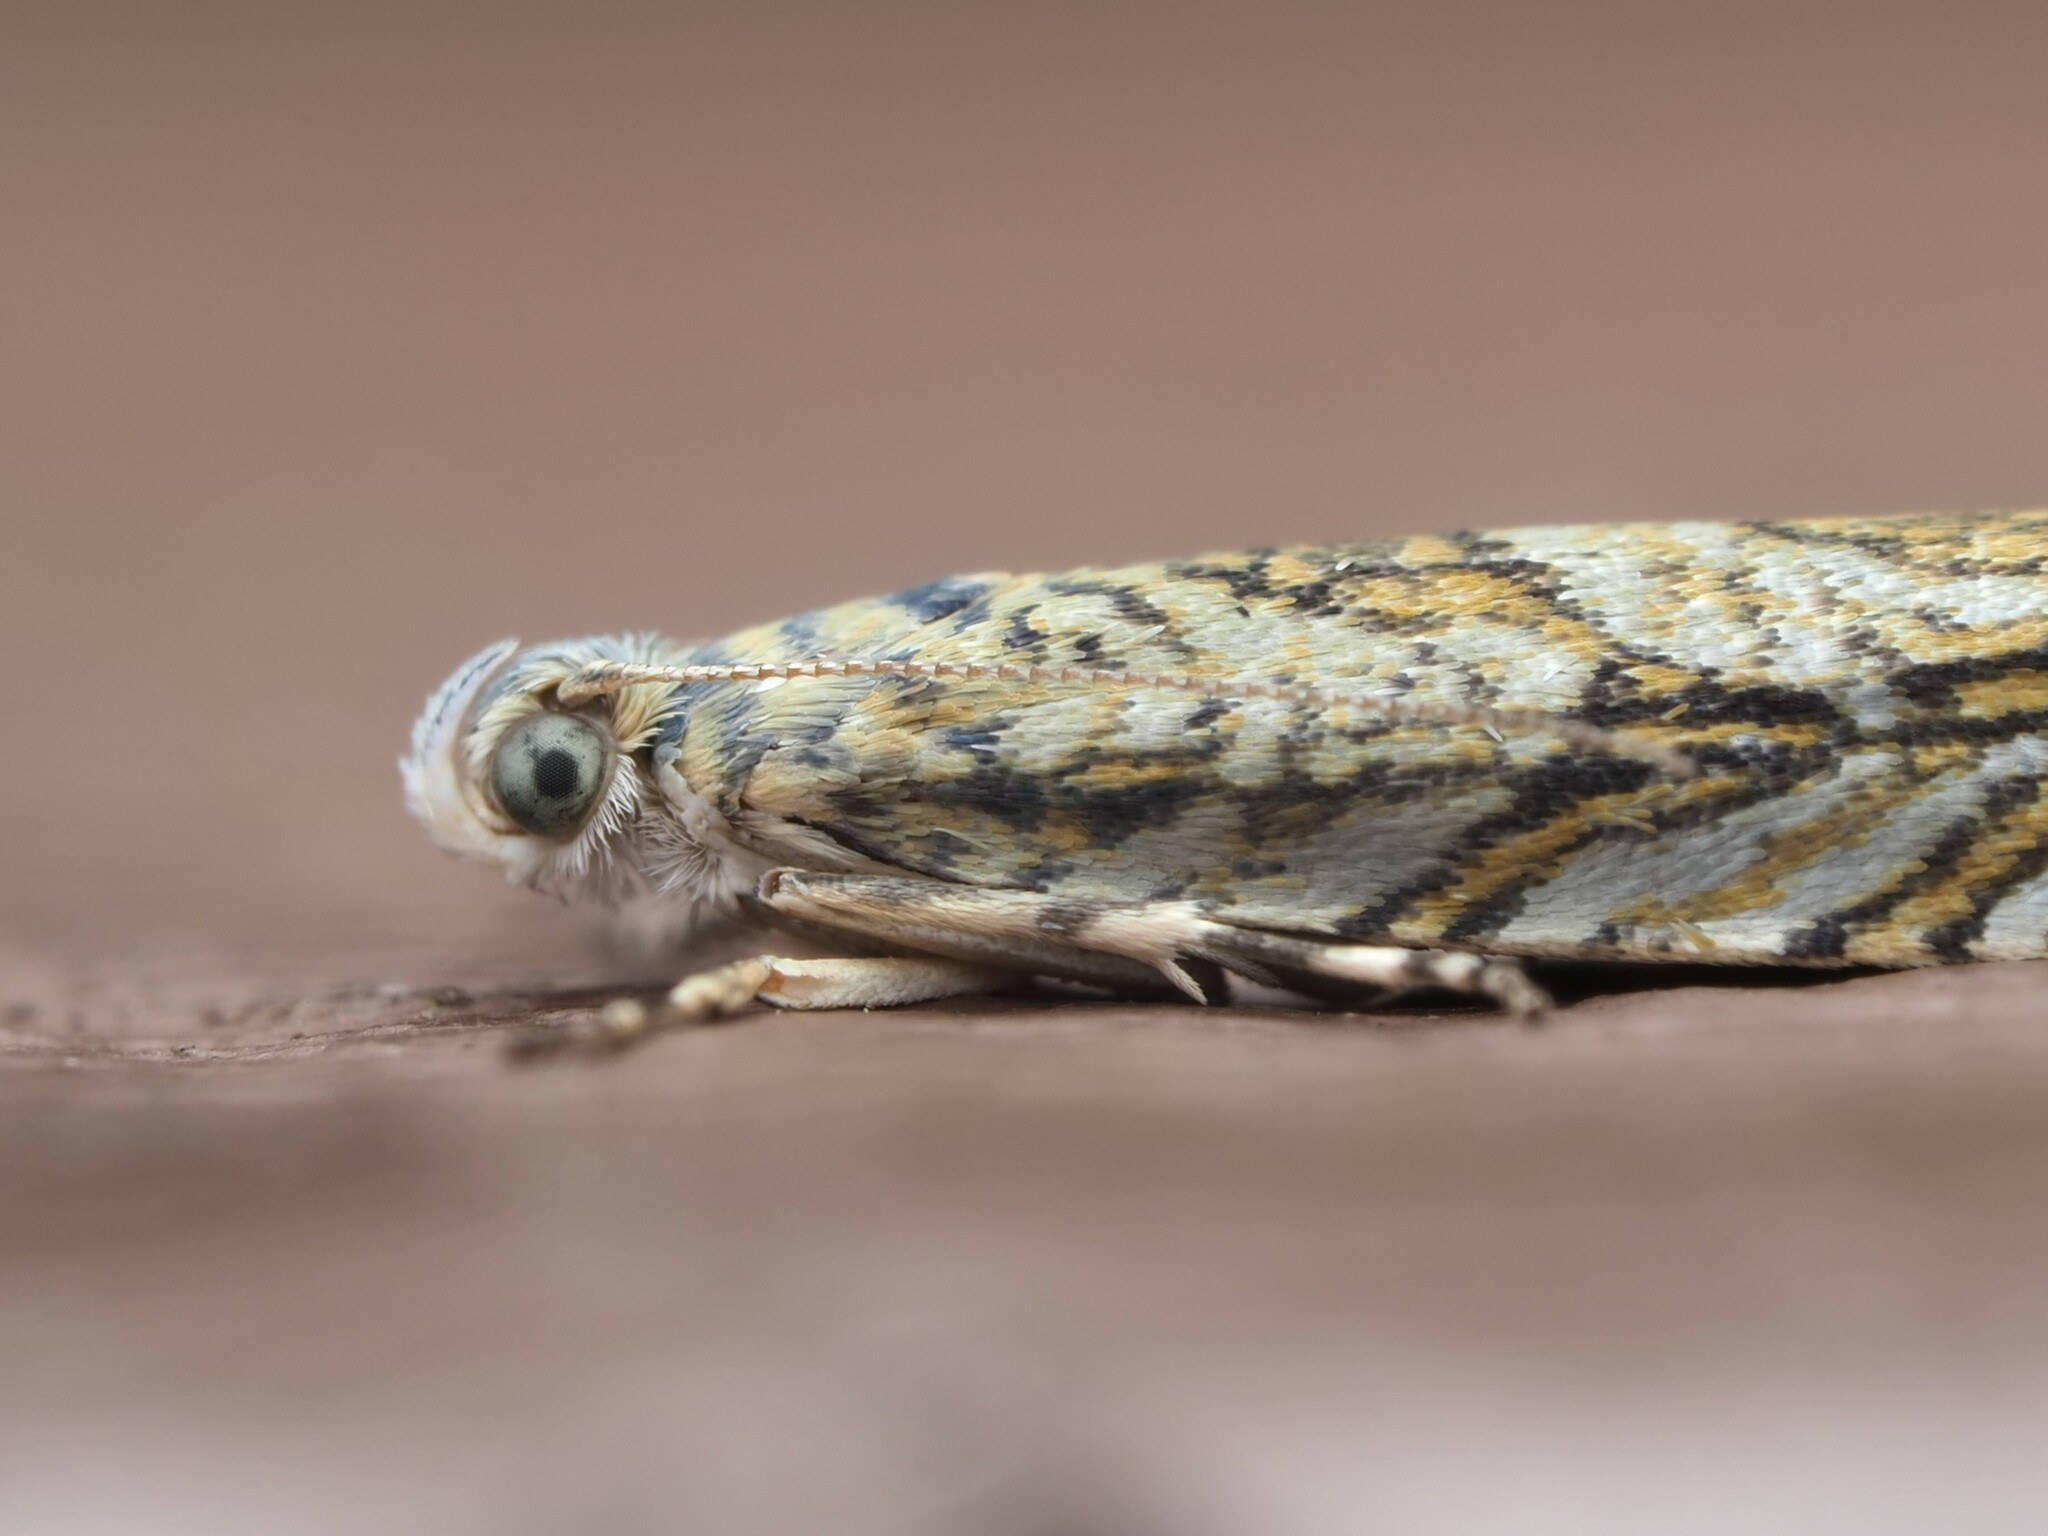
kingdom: Animalia
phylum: Arthropoda
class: Insecta
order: Lepidoptera
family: Plutellidae
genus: Doxophyrtis
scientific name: Doxophyrtis hydrocosma
